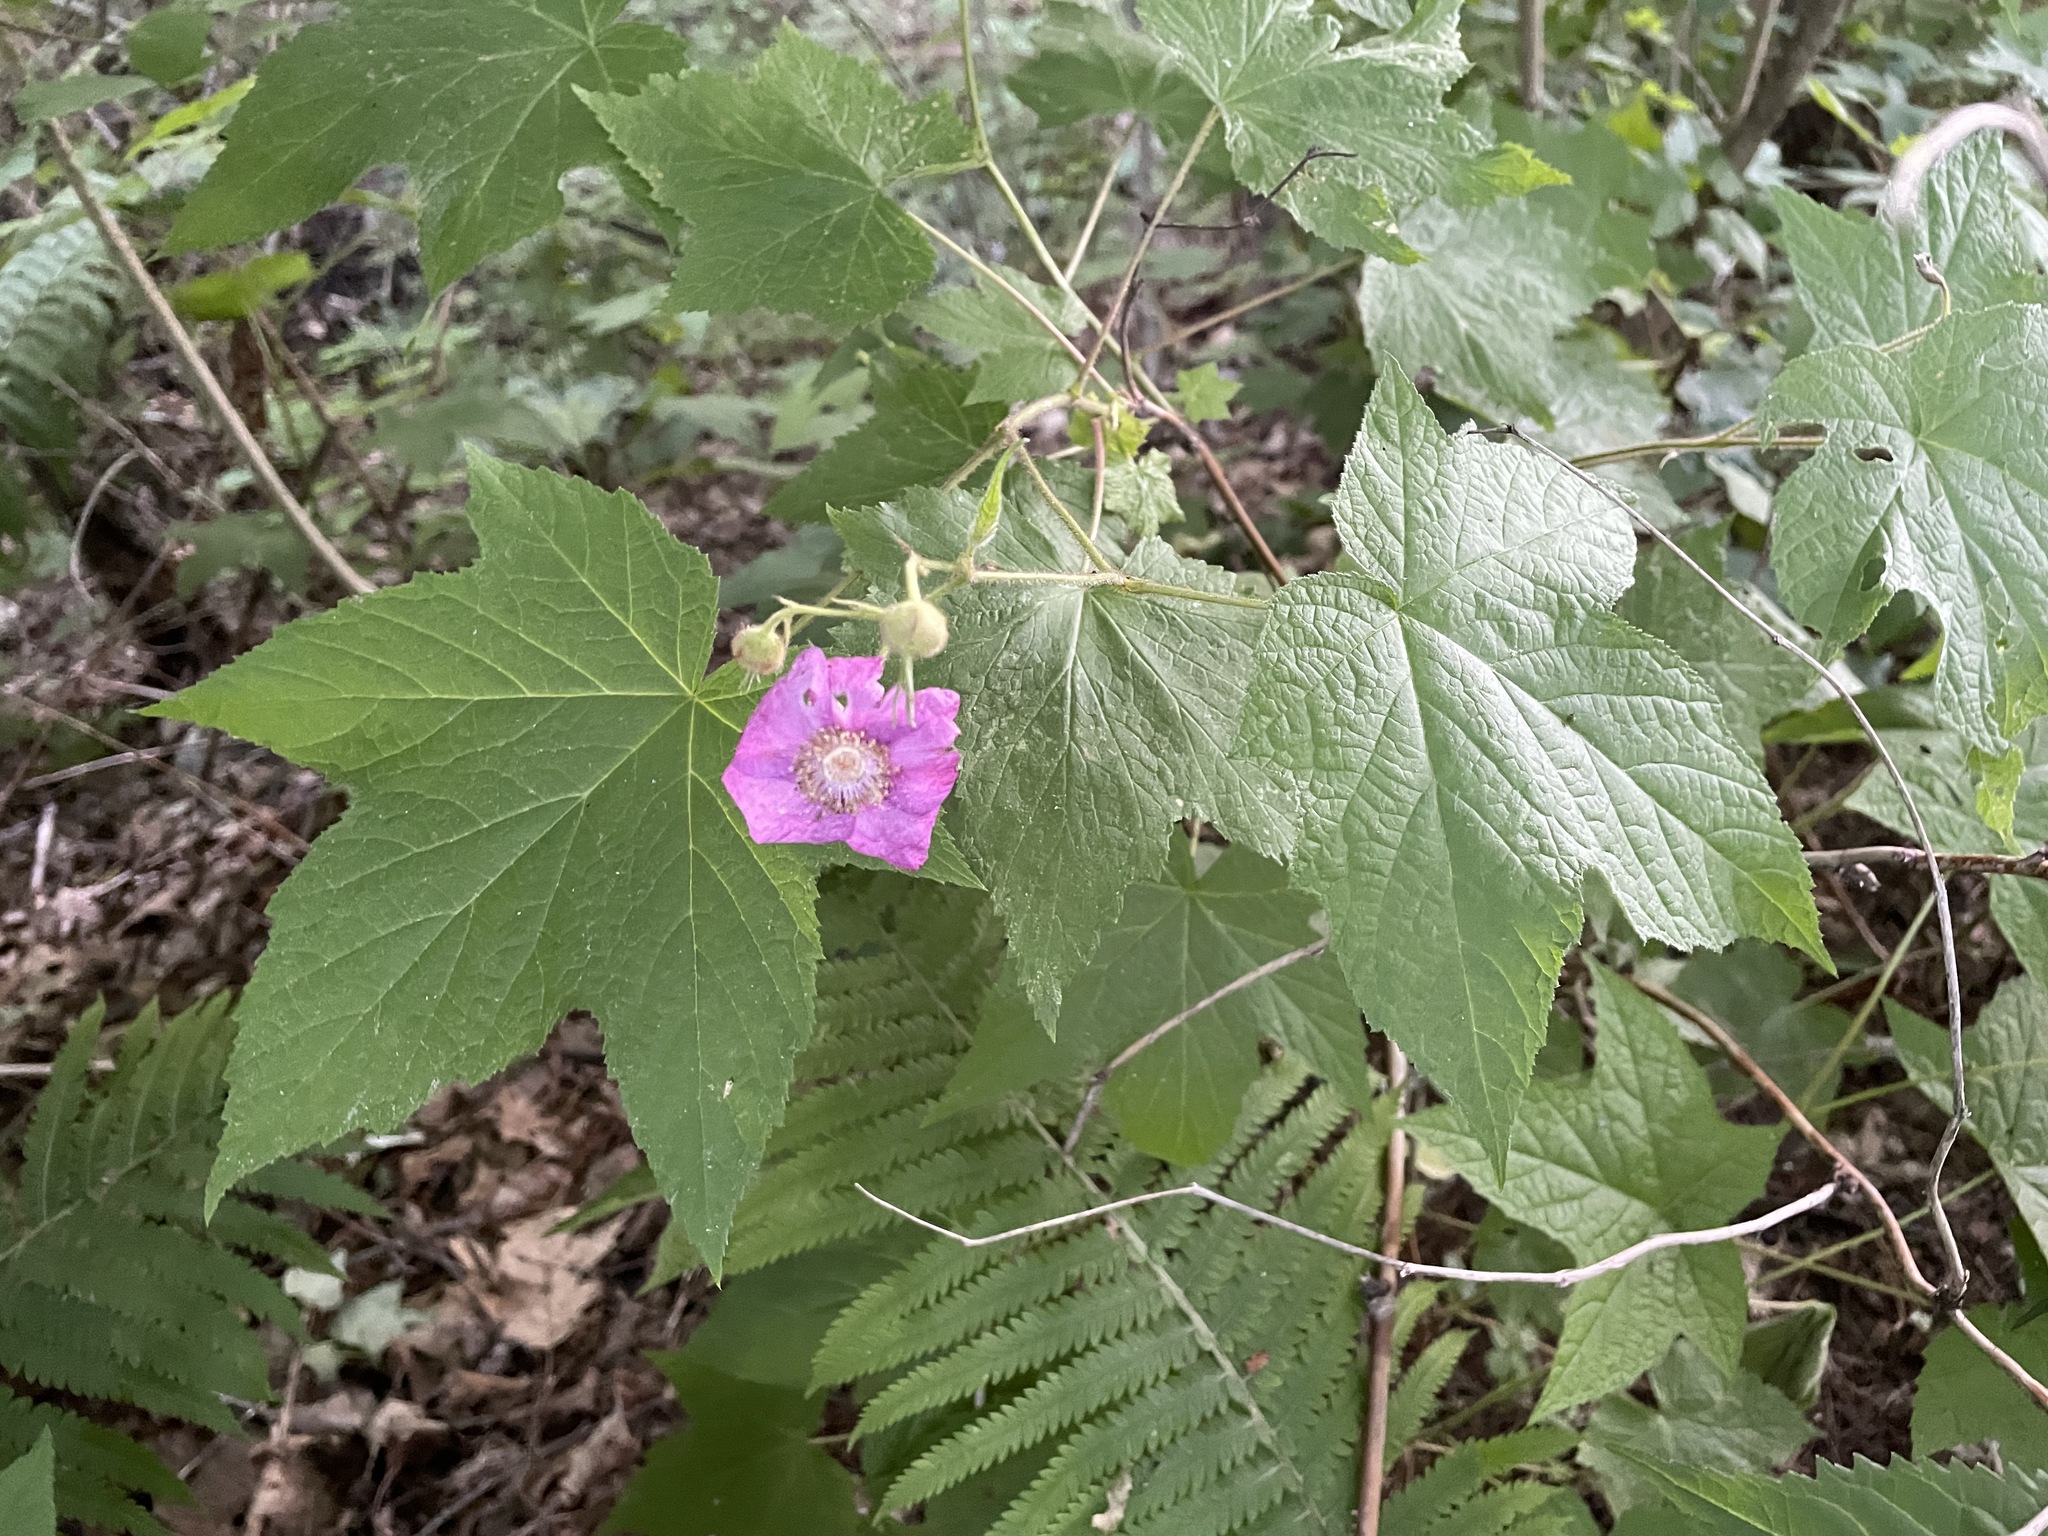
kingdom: Plantae
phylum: Tracheophyta
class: Magnoliopsida
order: Rosales
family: Rosaceae
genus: Rubus
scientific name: Rubus odoratus
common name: Purple-flowered raspberry
